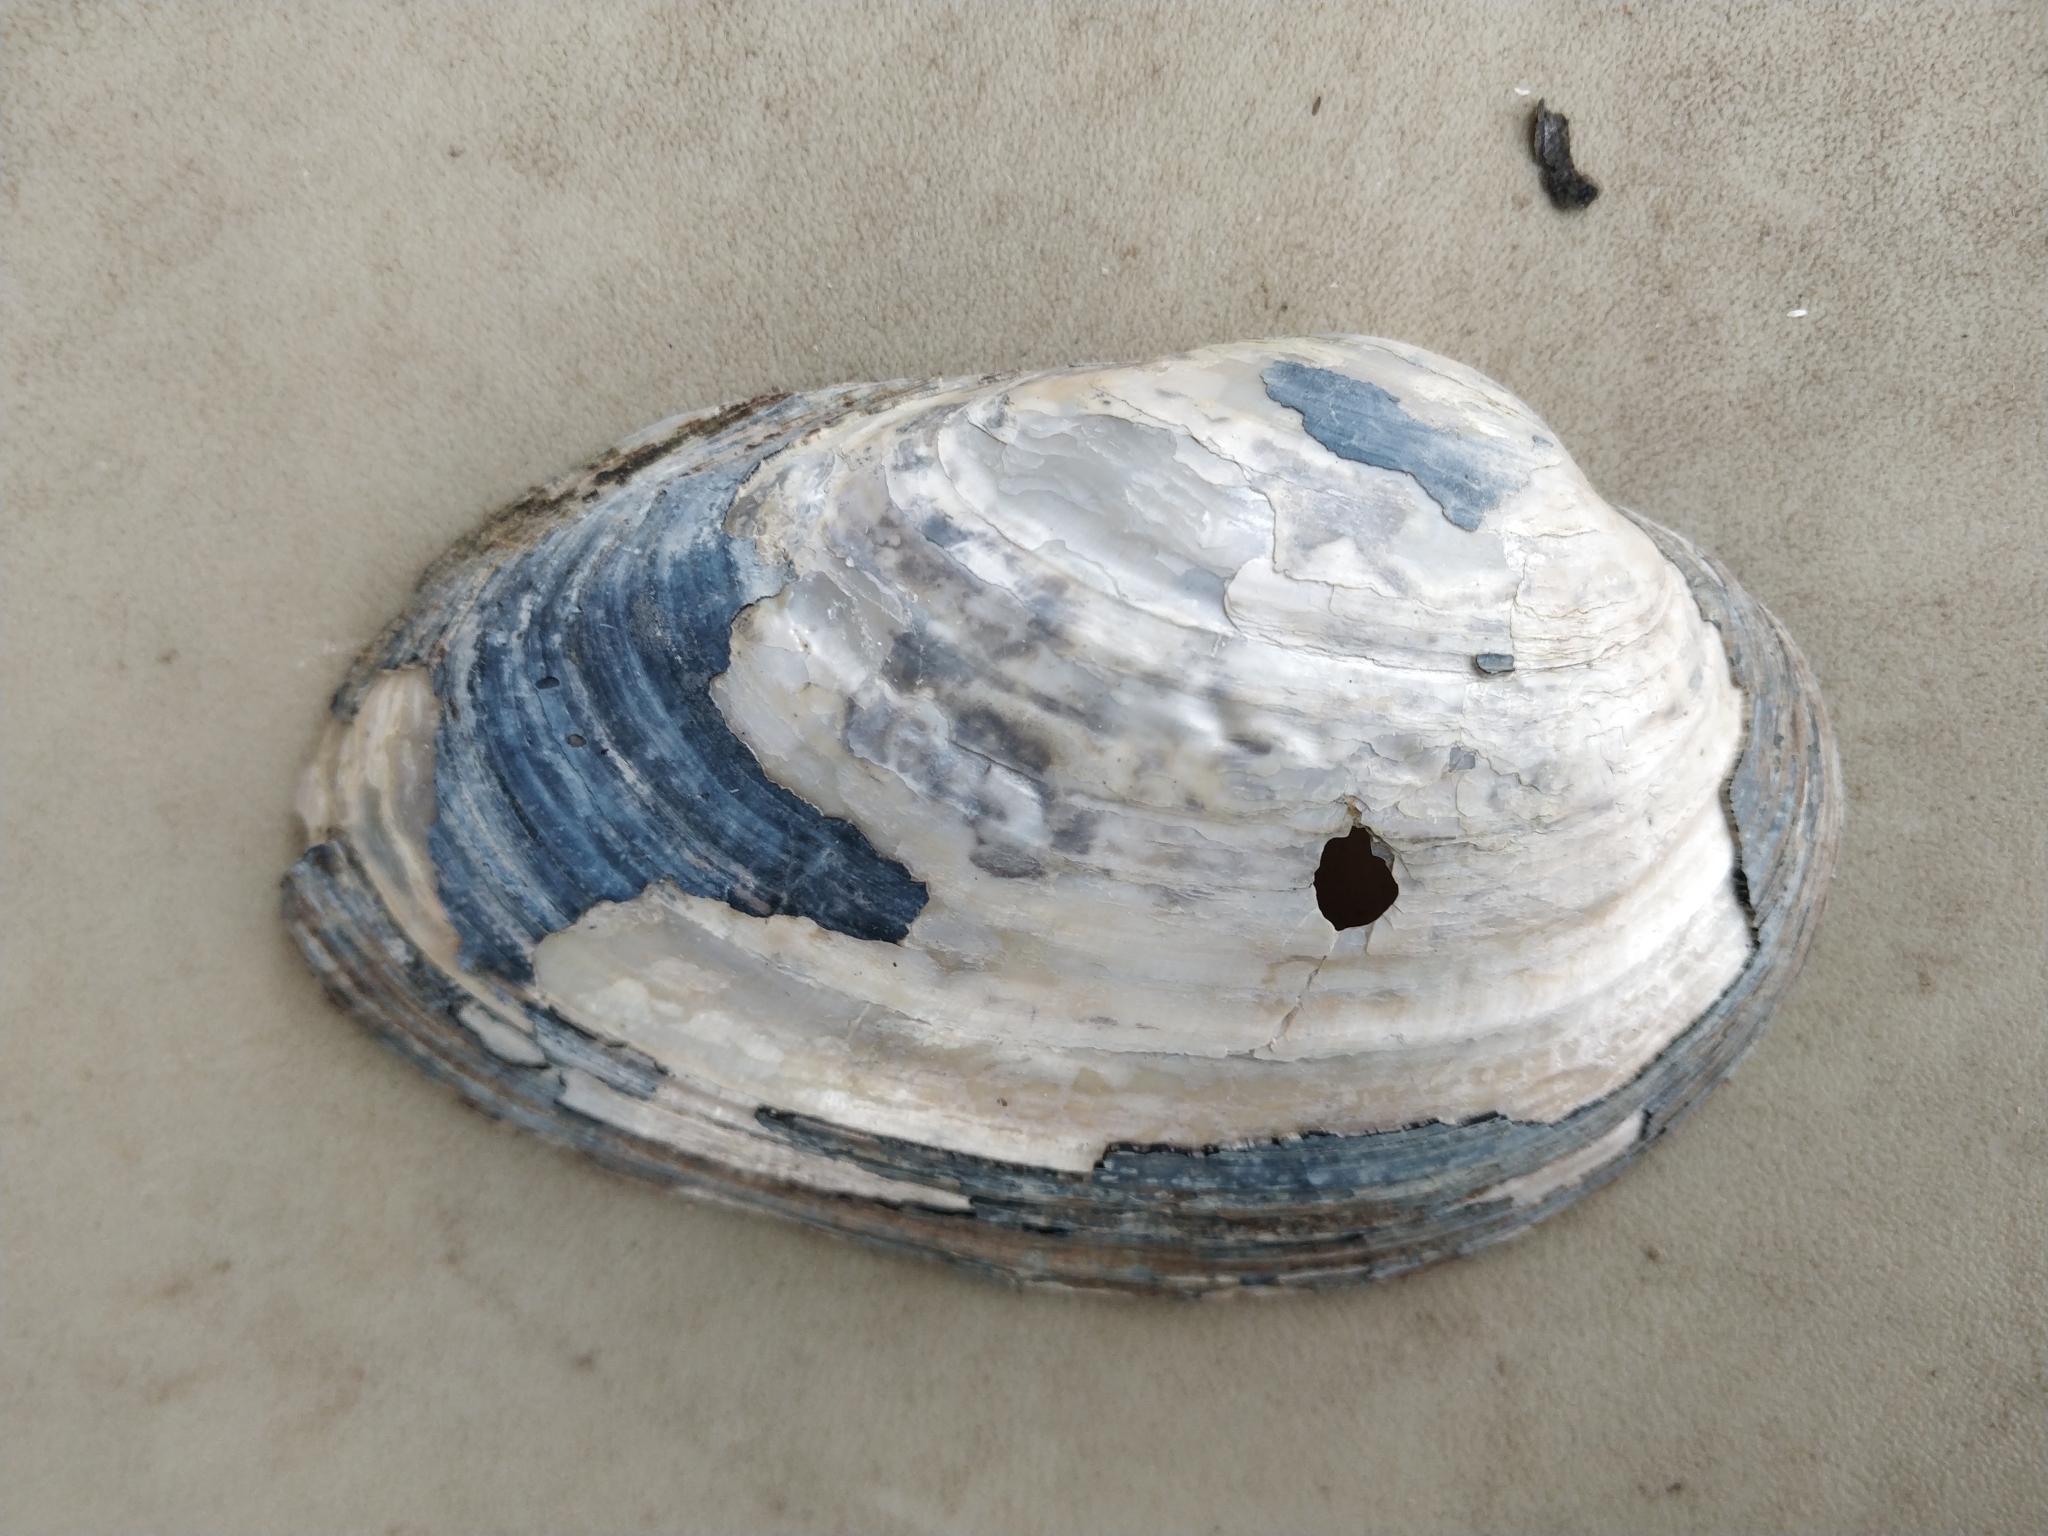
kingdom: Animalia
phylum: Mollusca
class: Bivalvia
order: Unionida
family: Unionidae
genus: Pyganodon
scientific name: Pyganodon grandis
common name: Giant floater
